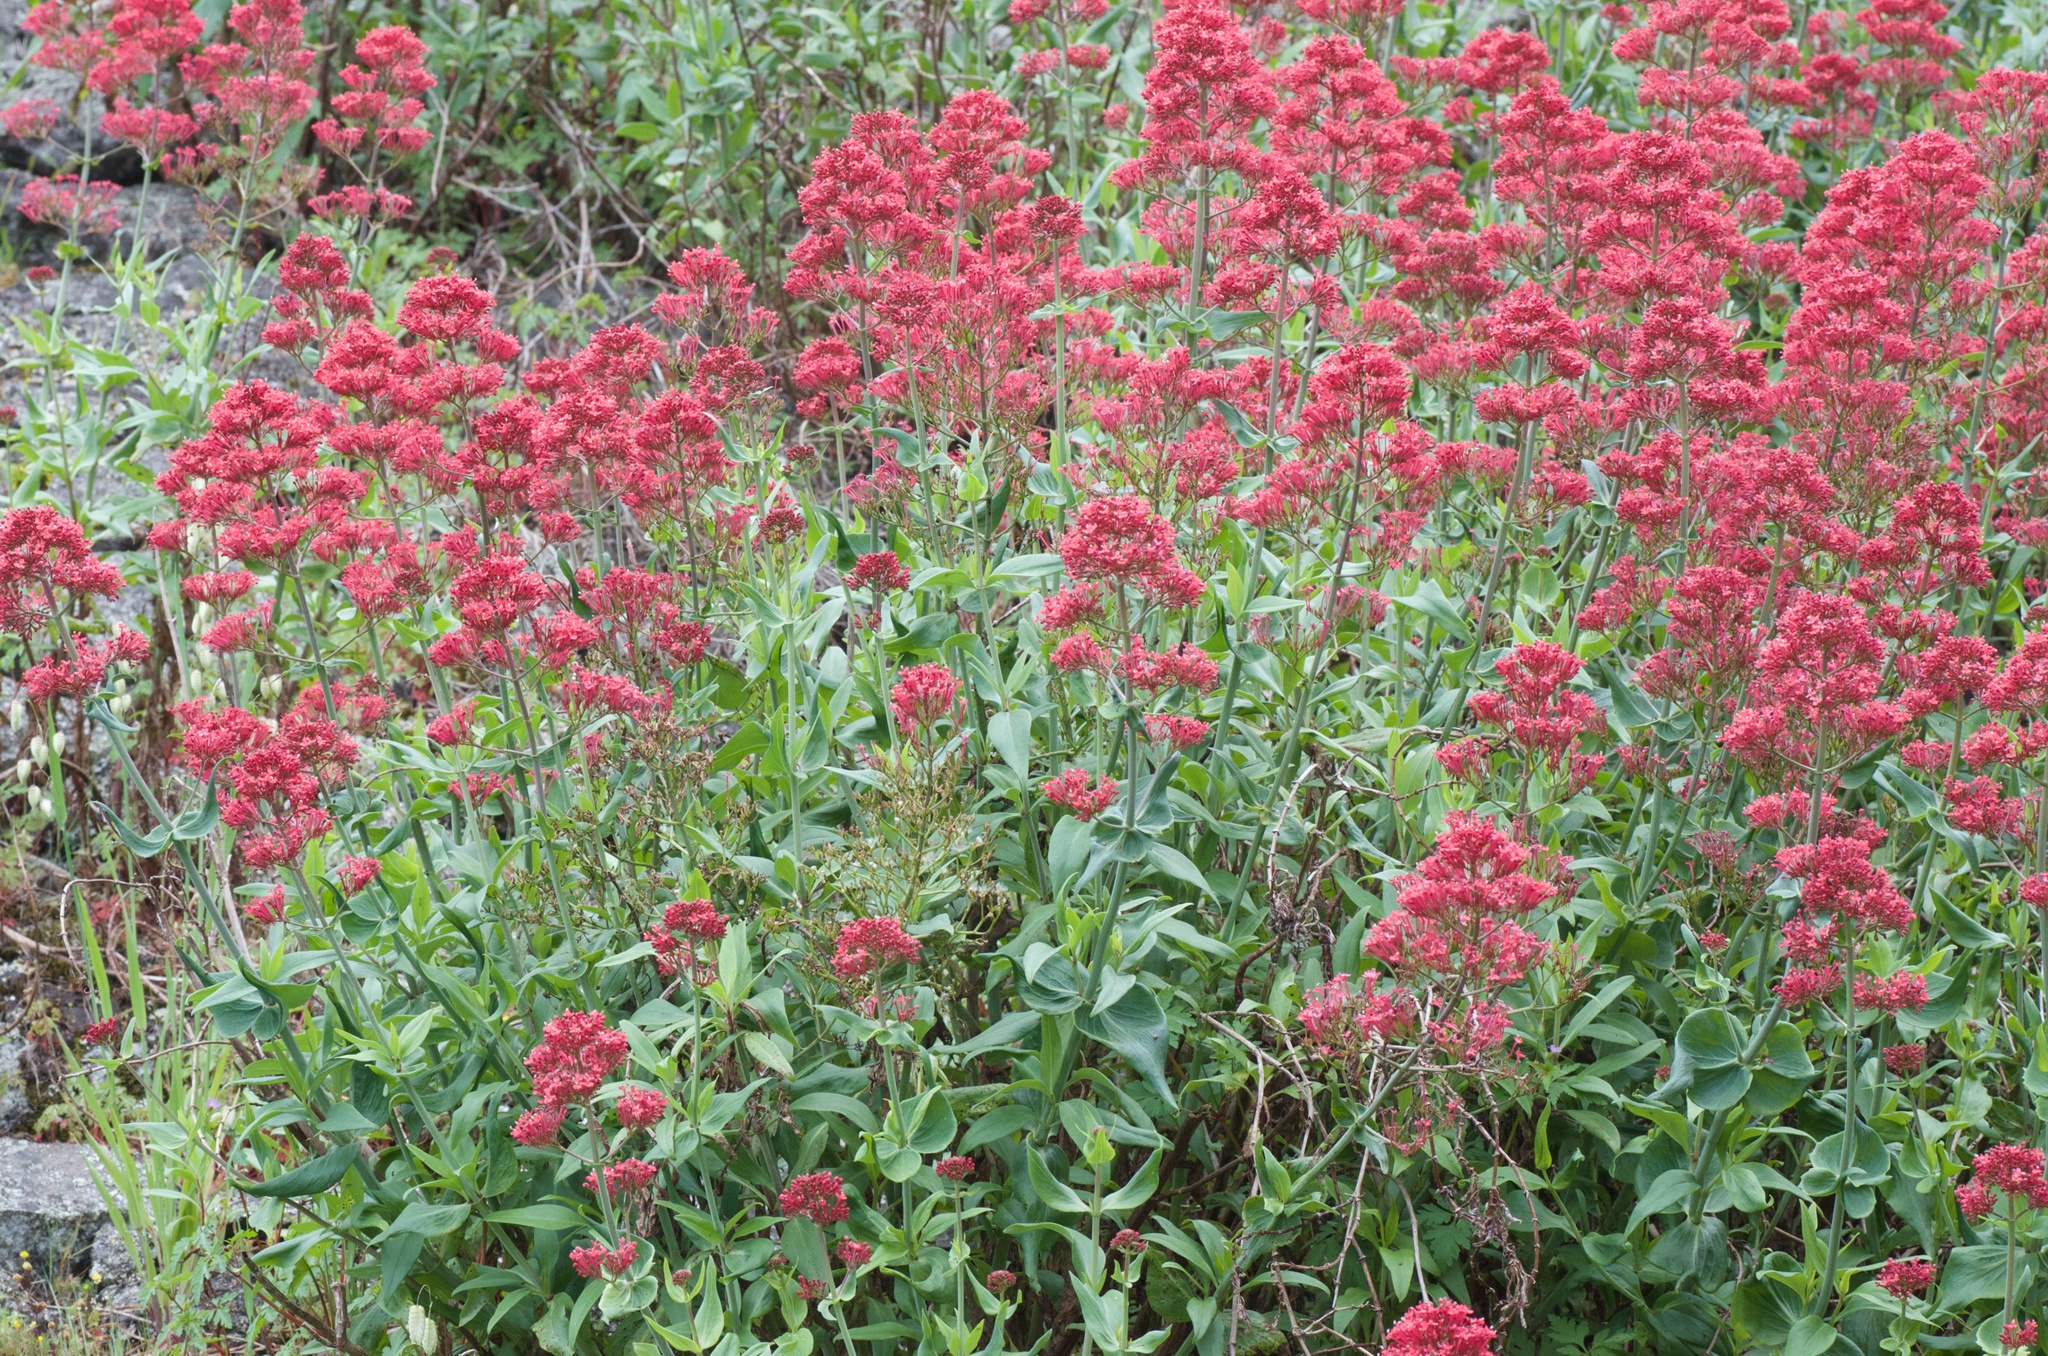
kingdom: Plantae
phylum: Tracheophyta
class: Magnoliopsida
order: Dipsacales
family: Caprifoliaceae
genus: Centranthus
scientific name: Centranthus ruber
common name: Red valerian
